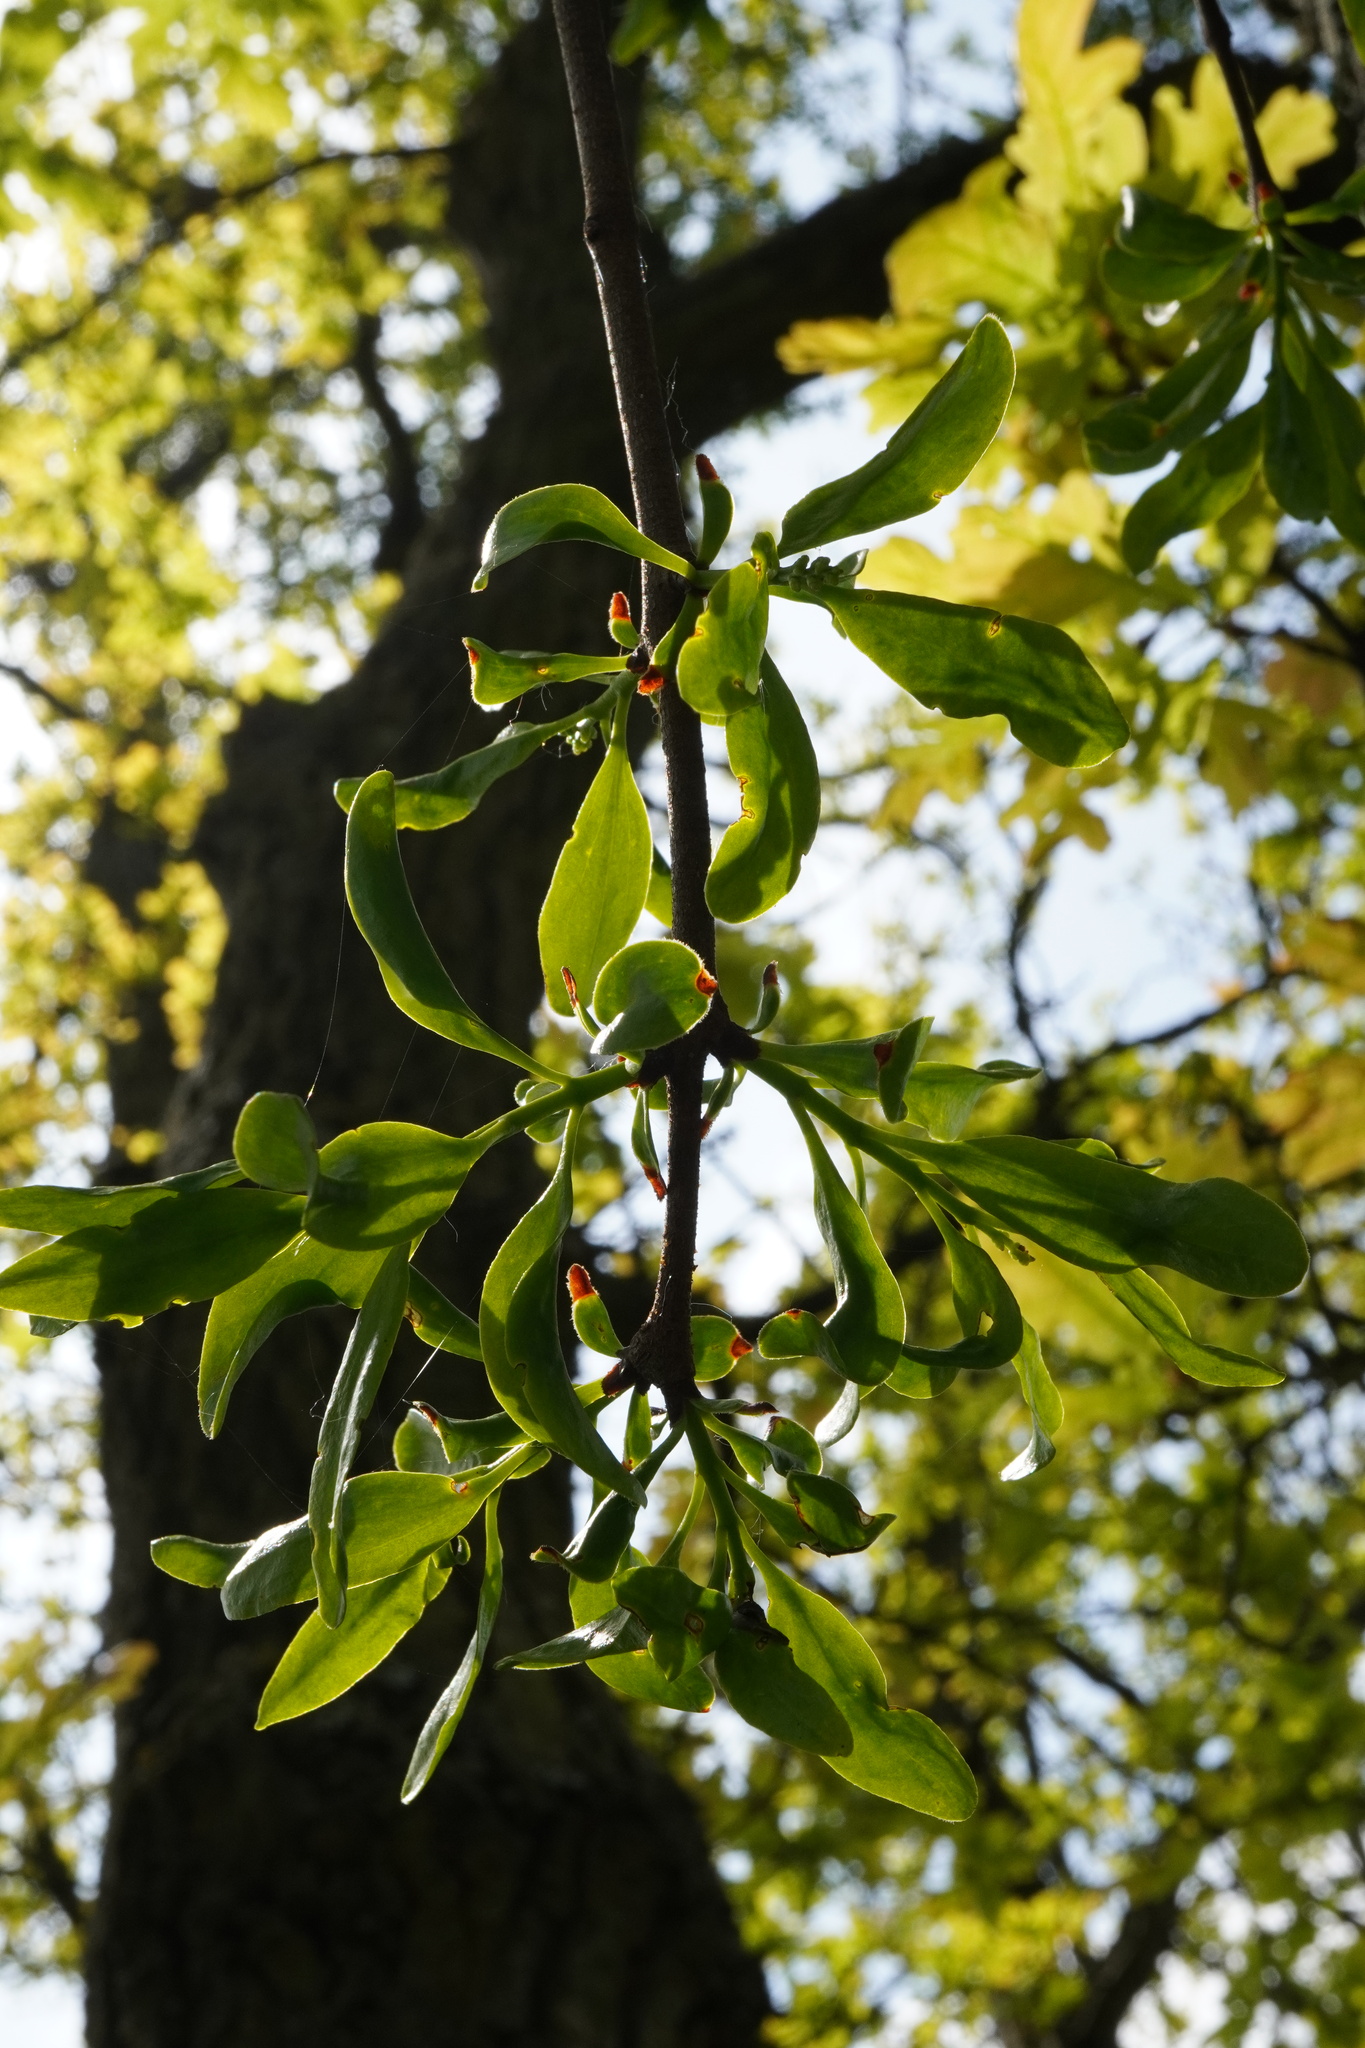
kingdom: Plantae
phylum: Tracheophyta
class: Magnoliopsida
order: Santalales
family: Loranthaceae
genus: Loranthus
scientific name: Loranthus europaeus
